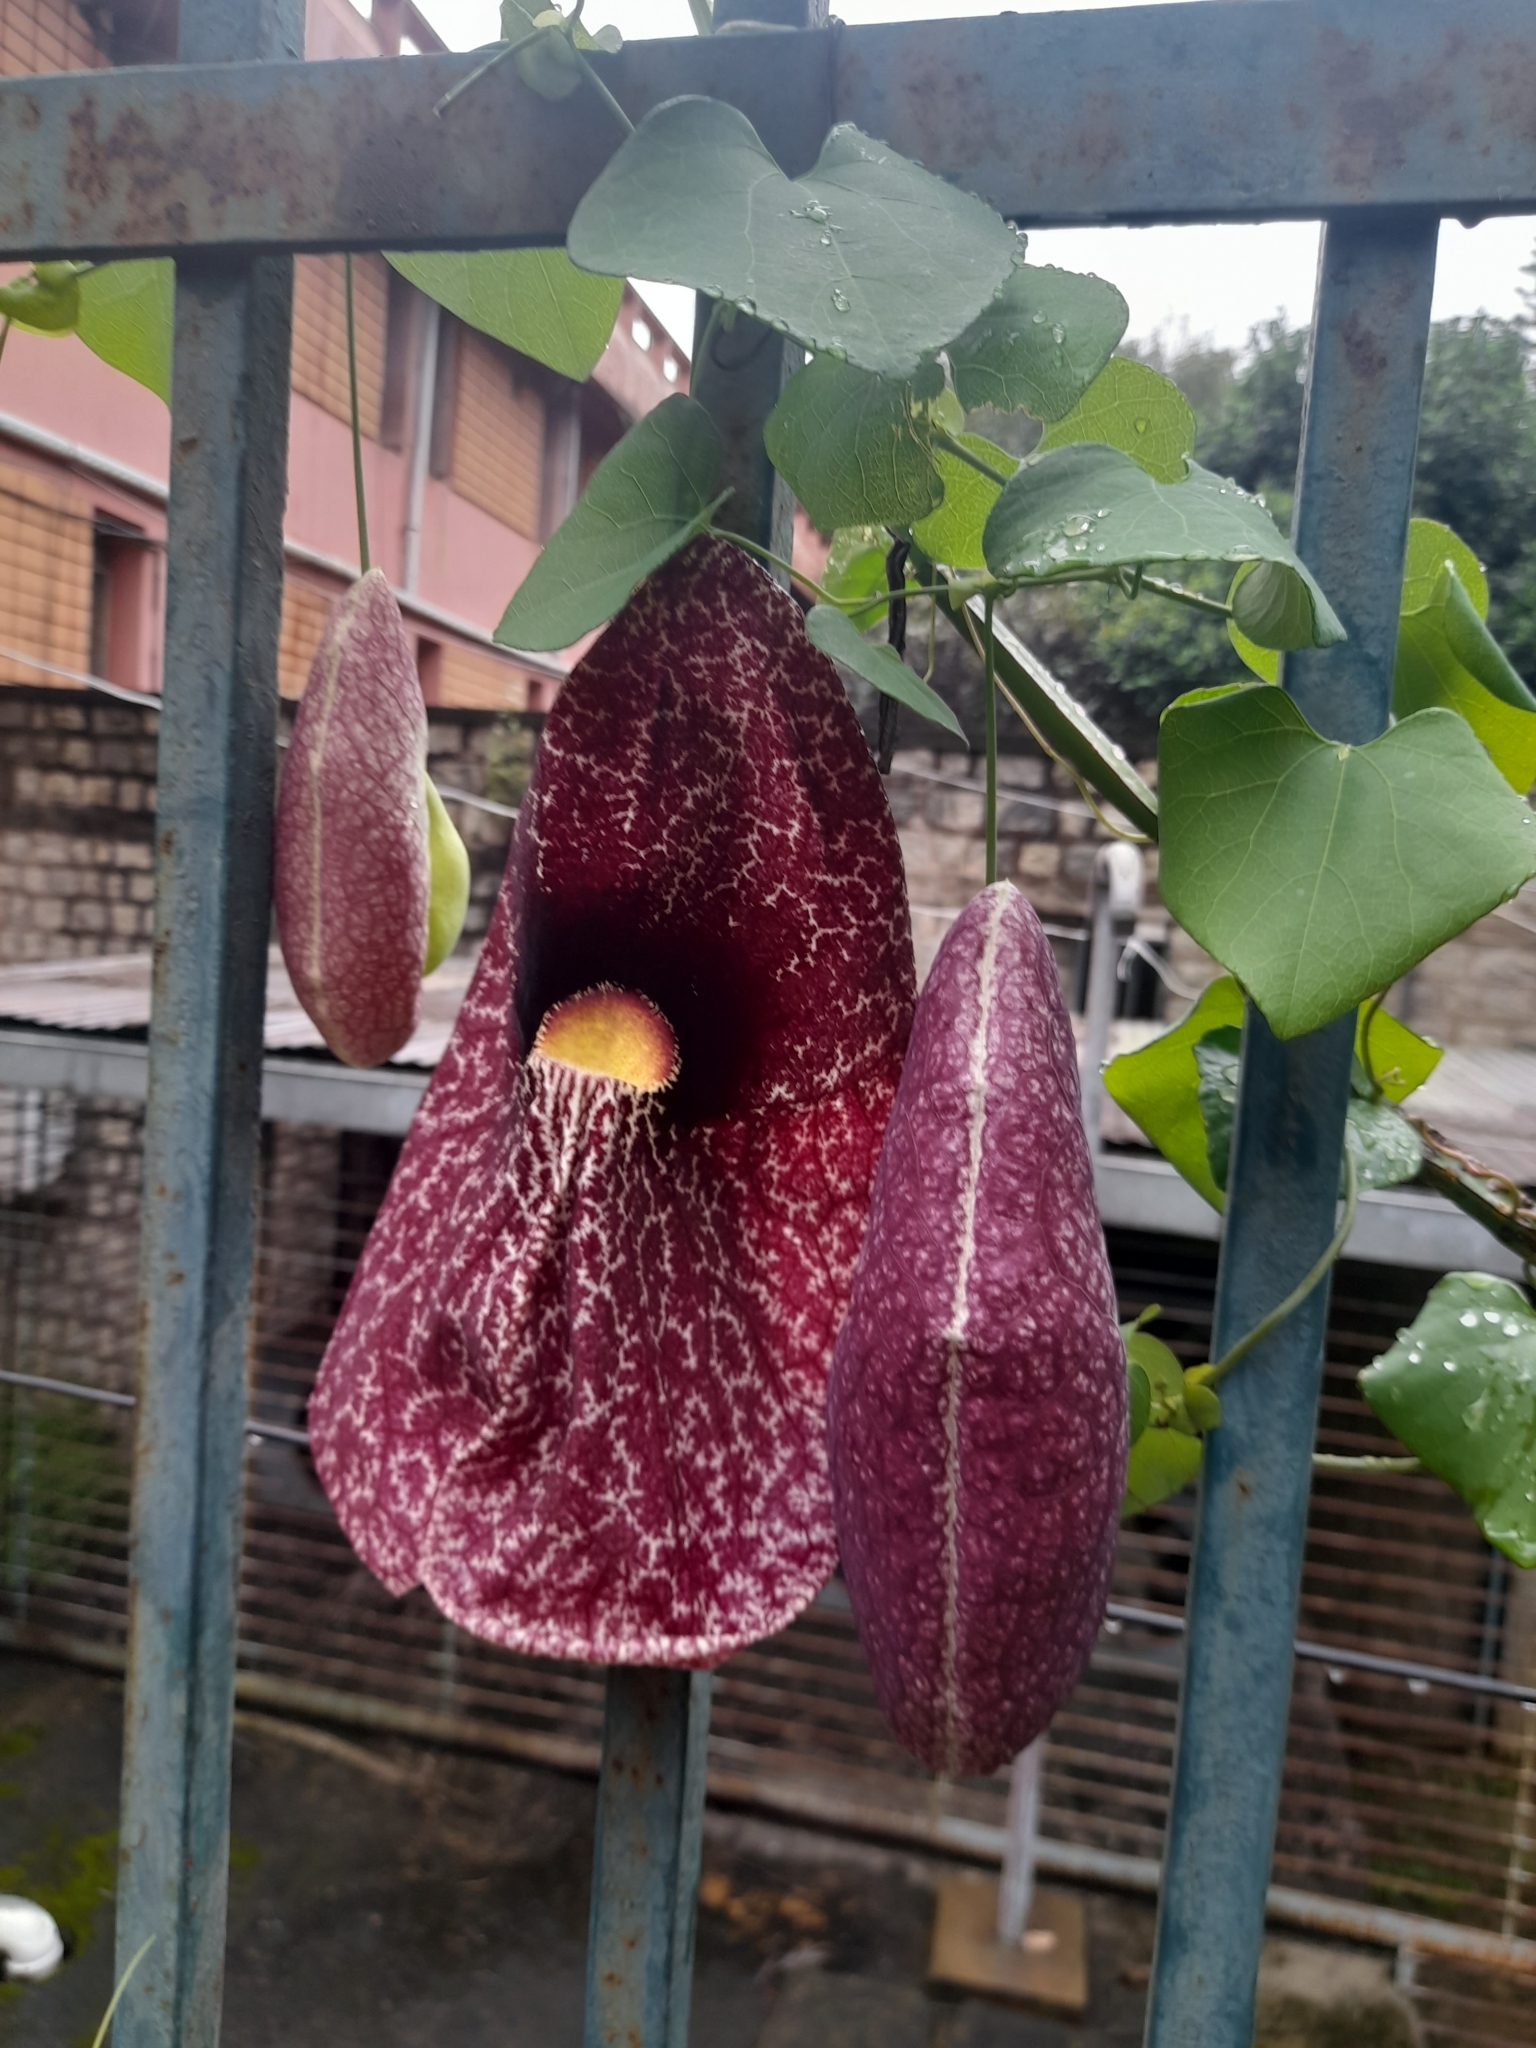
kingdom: Plantae
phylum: Tracheophyta
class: Magnoliopsida
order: Piperales
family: Aristolochiaceae
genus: Aristolochia
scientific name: Aristolochia littoralis
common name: Duck
